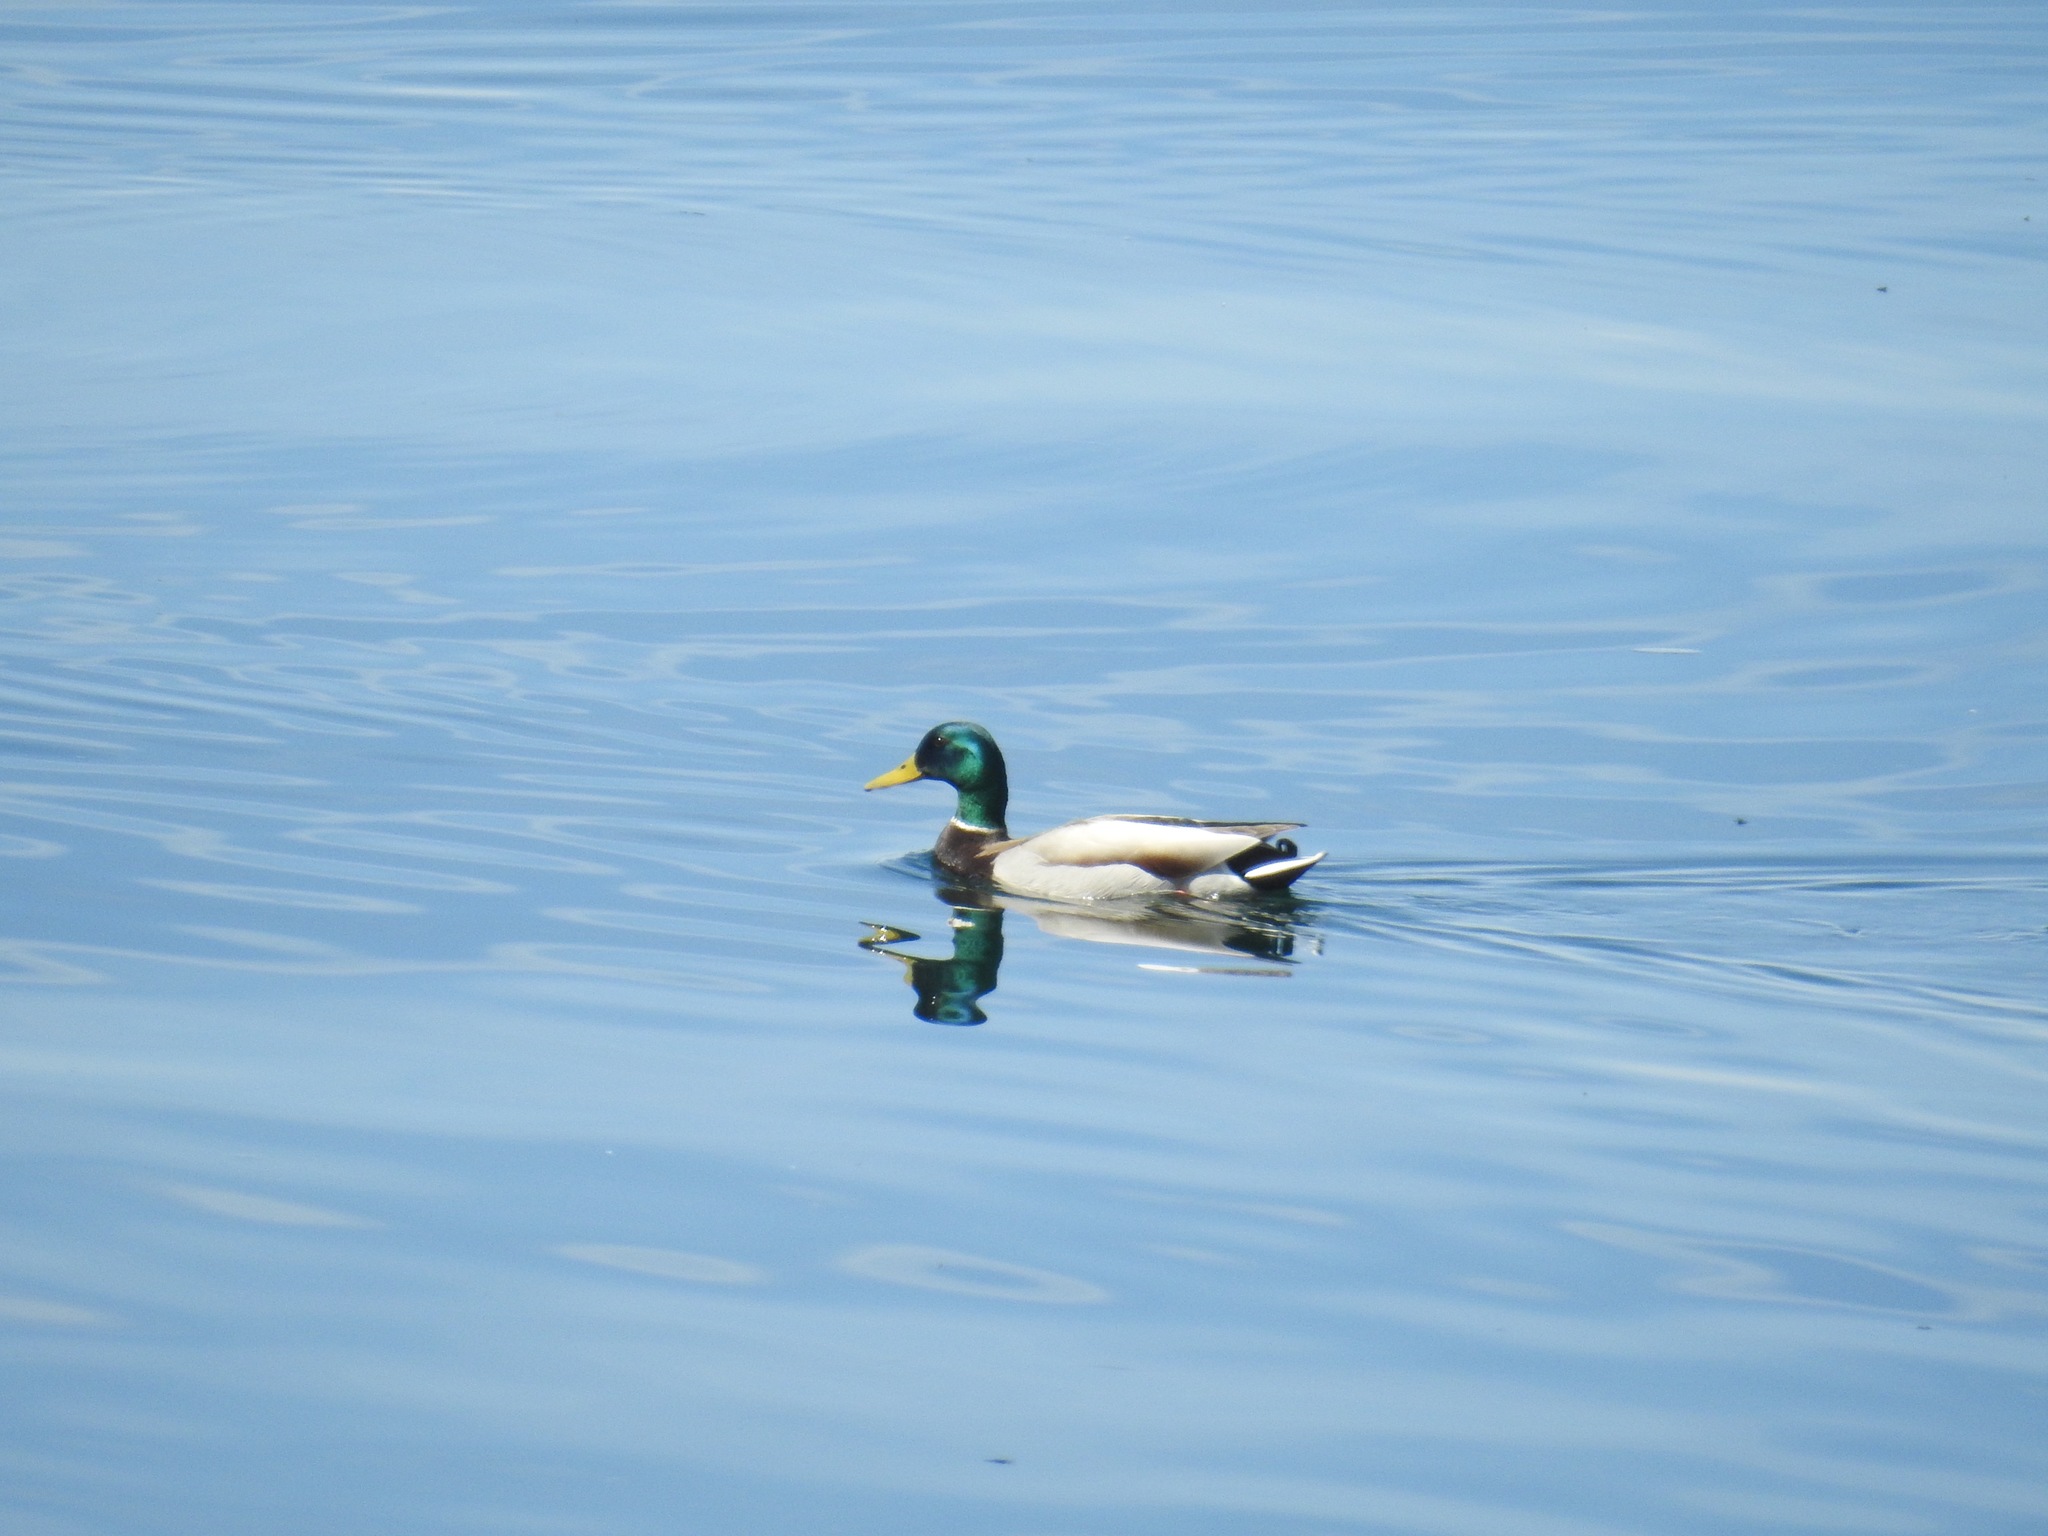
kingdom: Animalia
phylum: Chordata
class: Aves
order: Anseriformes
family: Anatidae
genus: Anas
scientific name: Anas platyrhynchos
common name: Mallard
